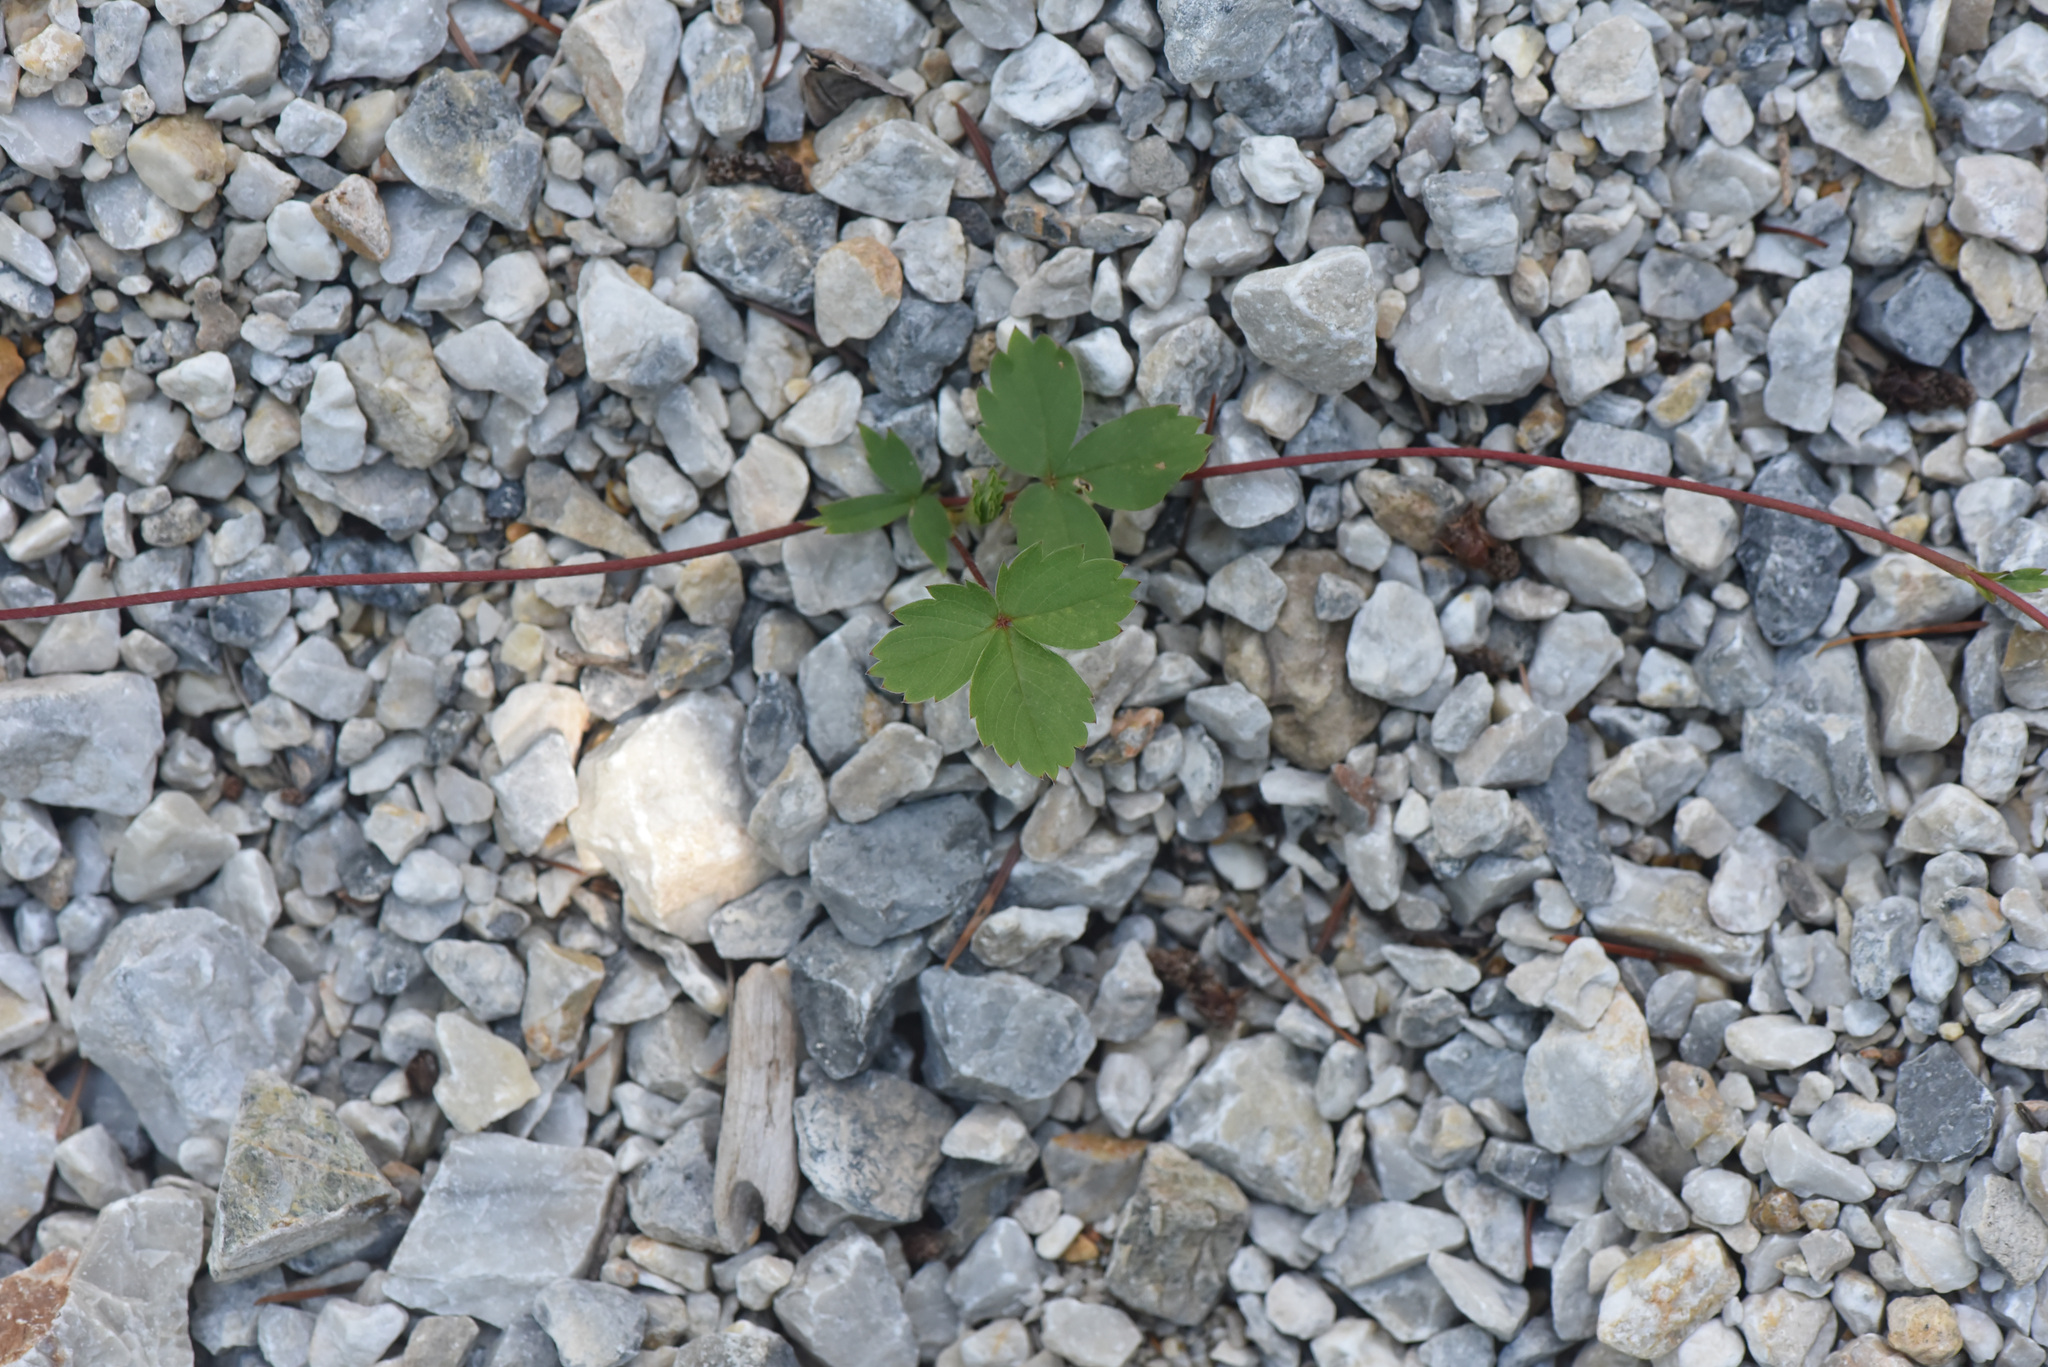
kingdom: Plantae
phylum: Tracheophyta
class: Magnoliopsida
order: Rosales
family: Rosaceae
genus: Fragaria
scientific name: Fragaria virginiana
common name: Thickleaved wild strawberry
